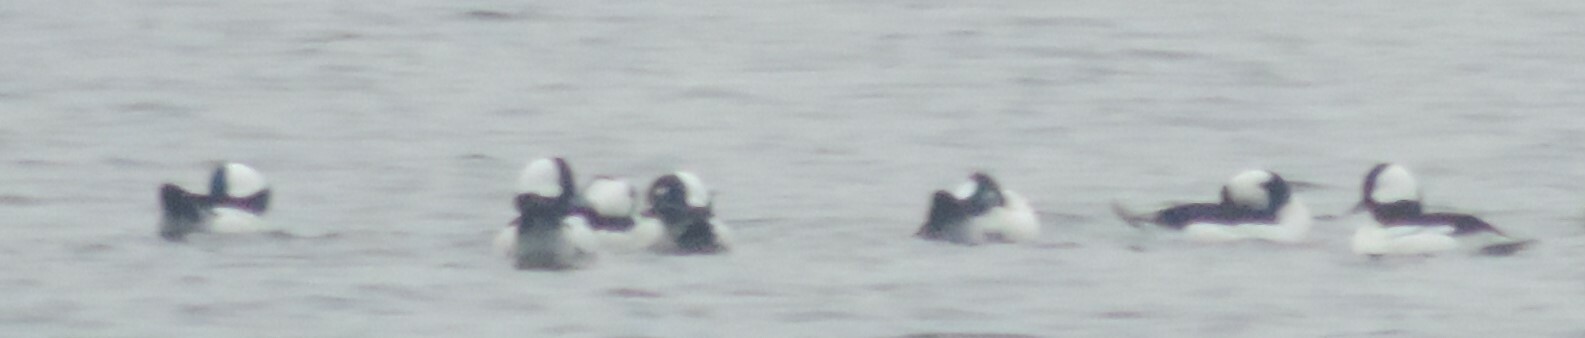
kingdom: Animalia
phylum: Chordata
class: Aves
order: Anseriformes
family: Anatidae
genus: Bucephala
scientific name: Bucephala albeola
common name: Bufflehead
